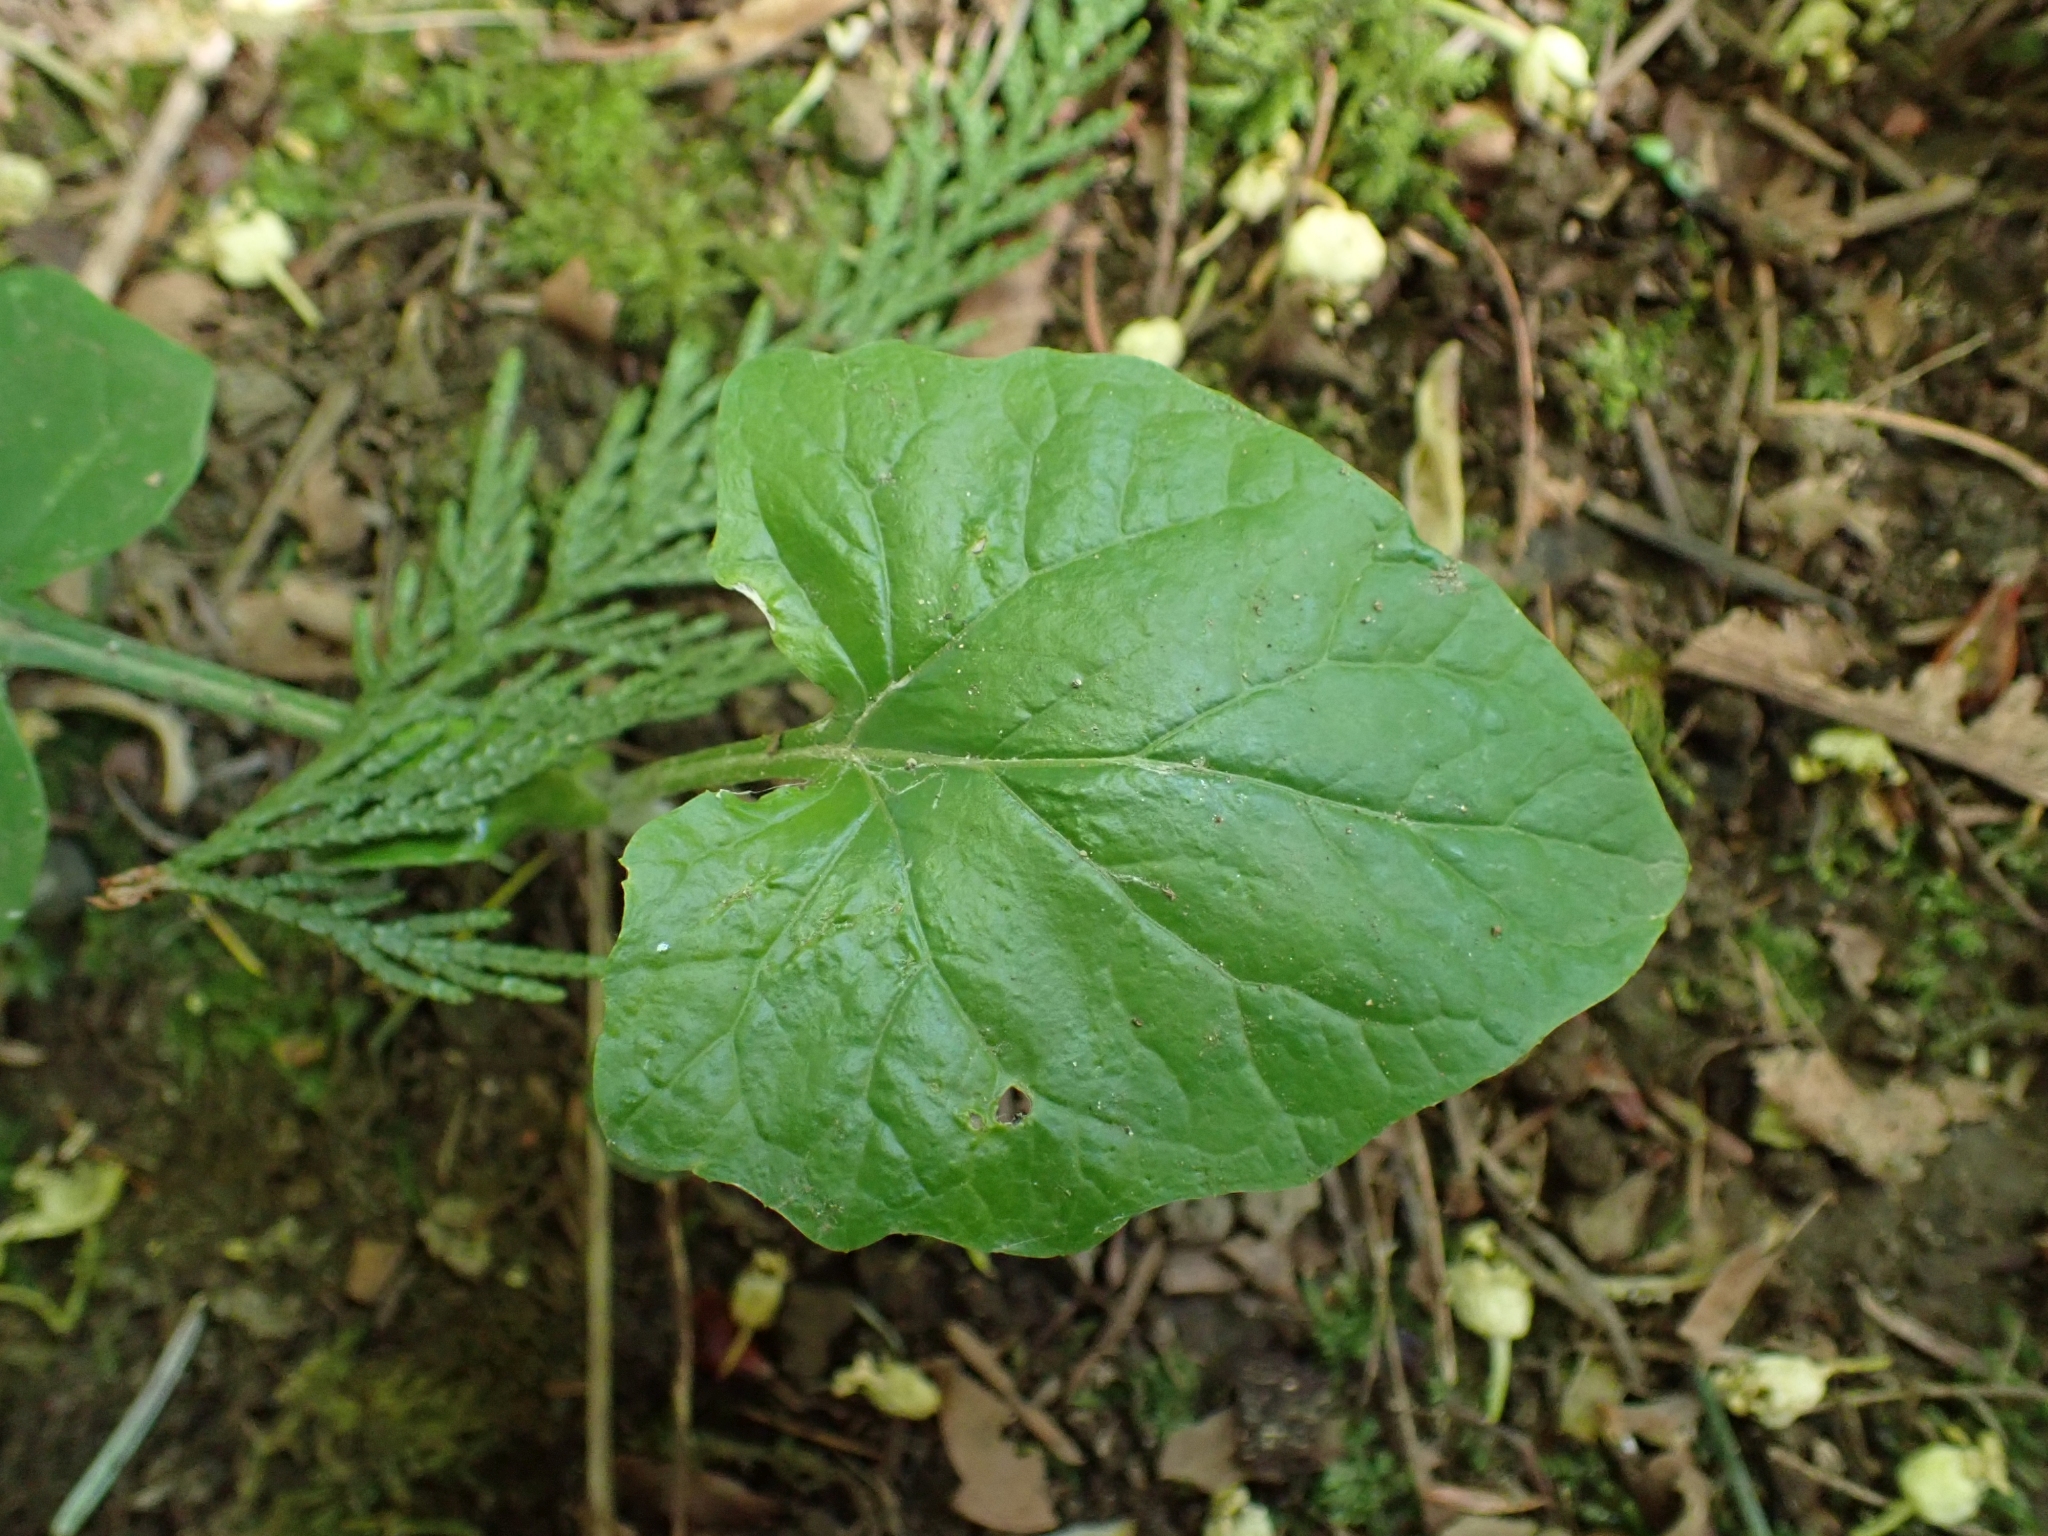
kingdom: Plantae
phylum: Tracheophyta
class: Magnoliopsida
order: Asterales
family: Asteraceae
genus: Adenocaulon
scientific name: Adenocaulon bicolor
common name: Trailplant
